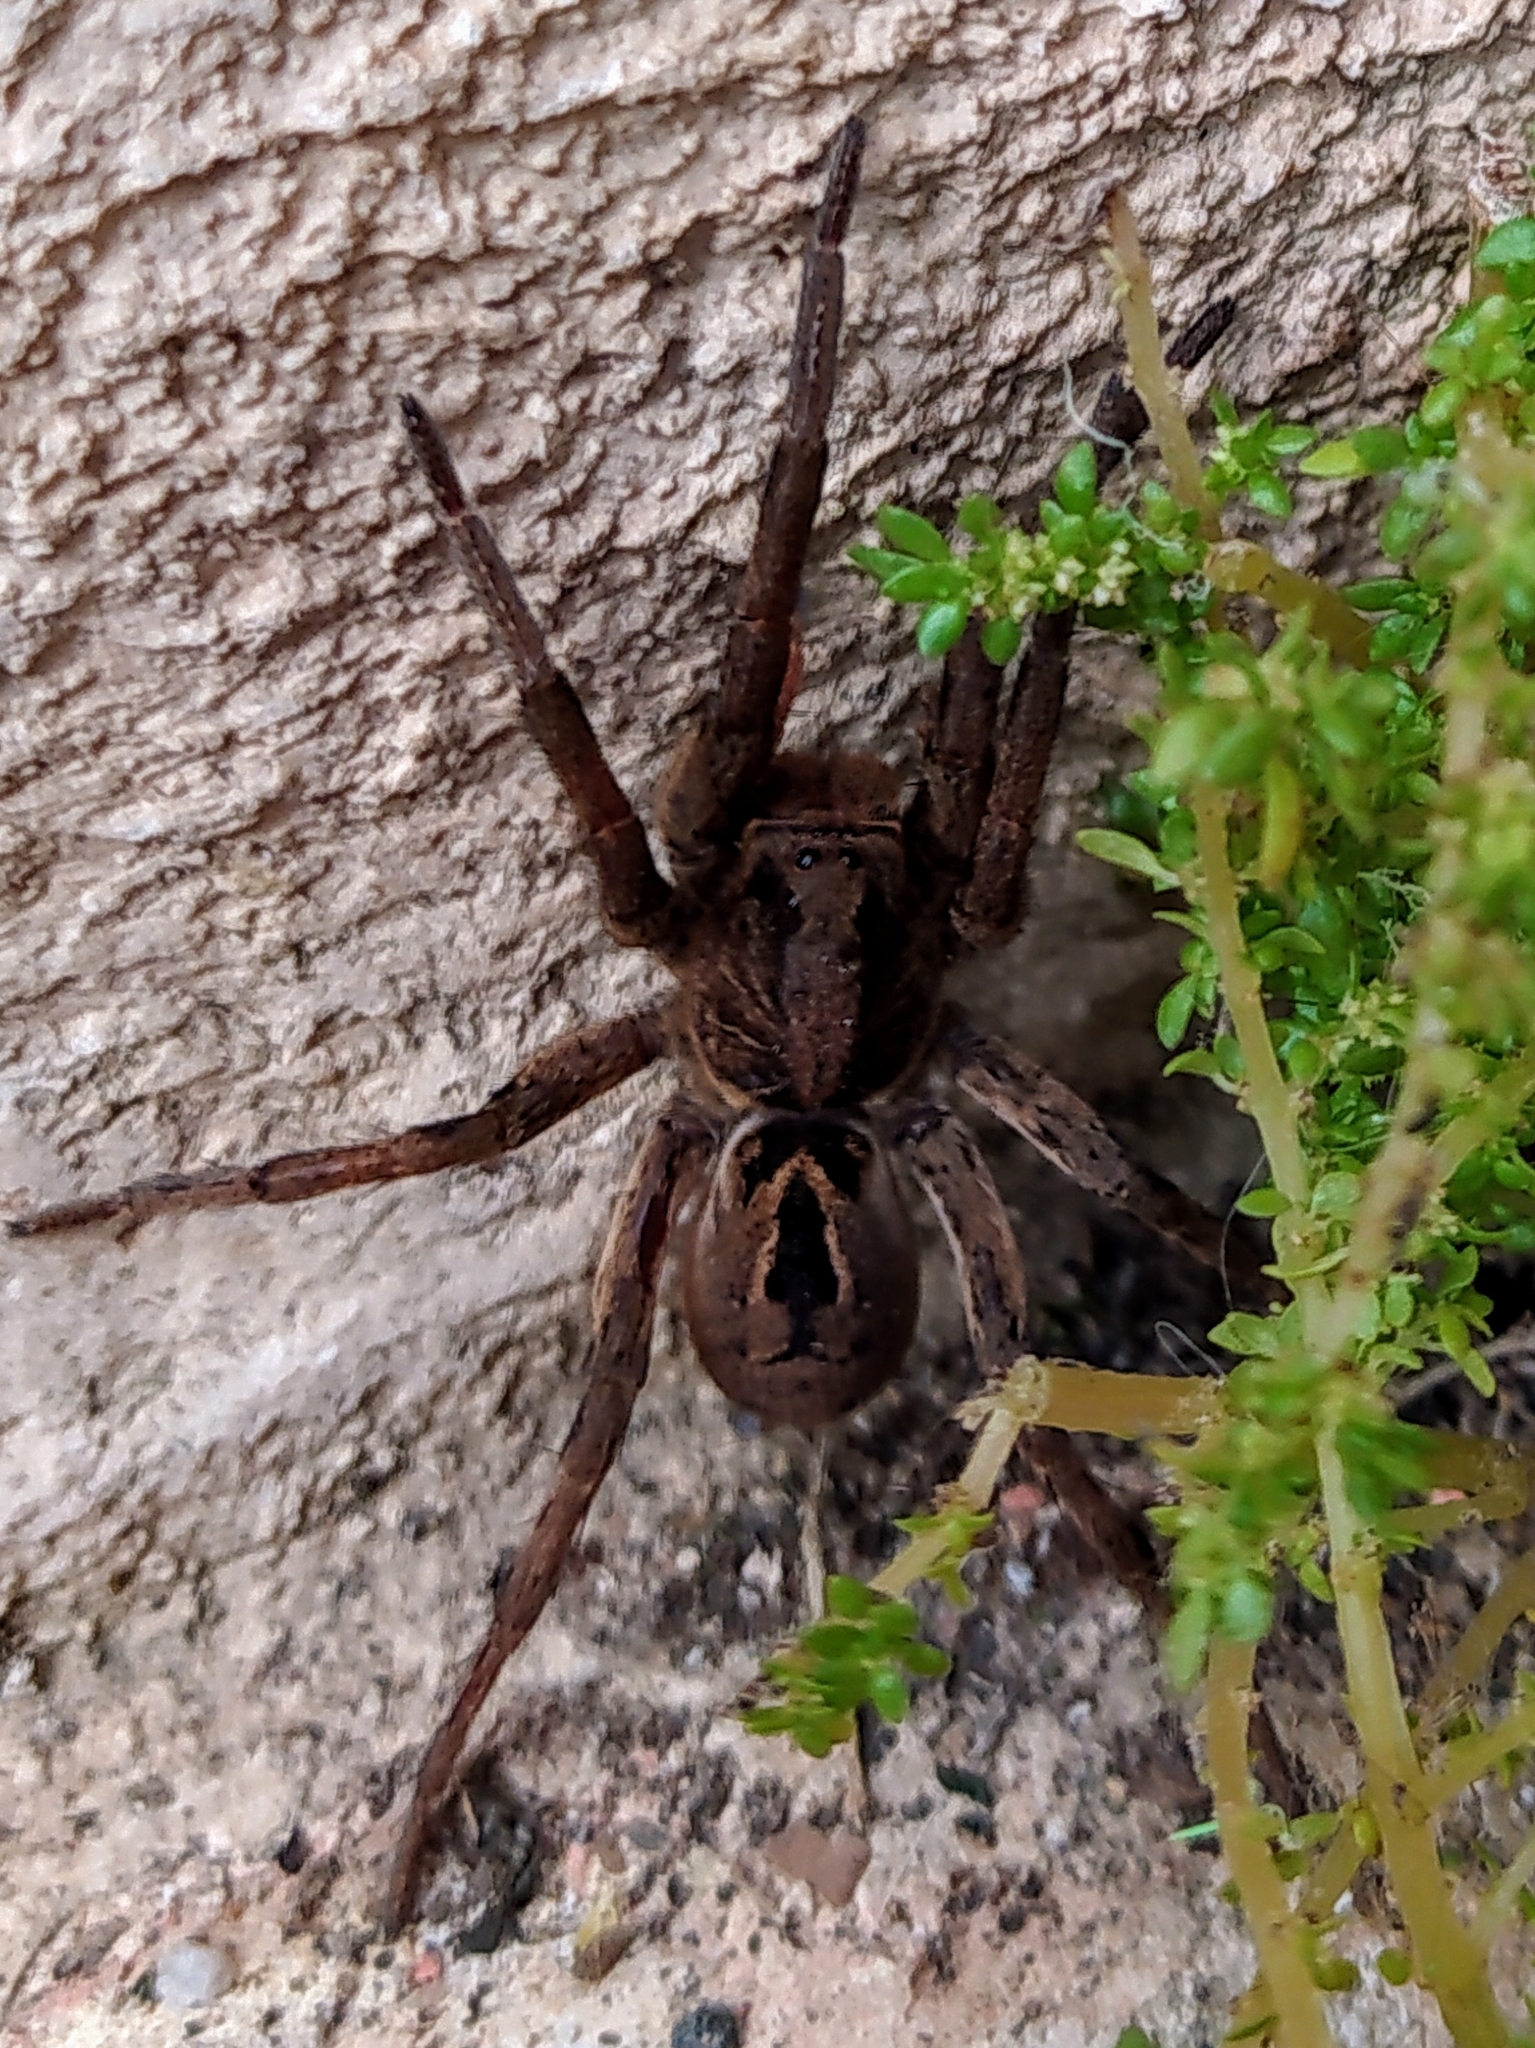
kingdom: Animalia
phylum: Arthropoda
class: Arachnida
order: Araneae
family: Lycosidae
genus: Lycosa
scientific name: Lycosa erythrognatha
